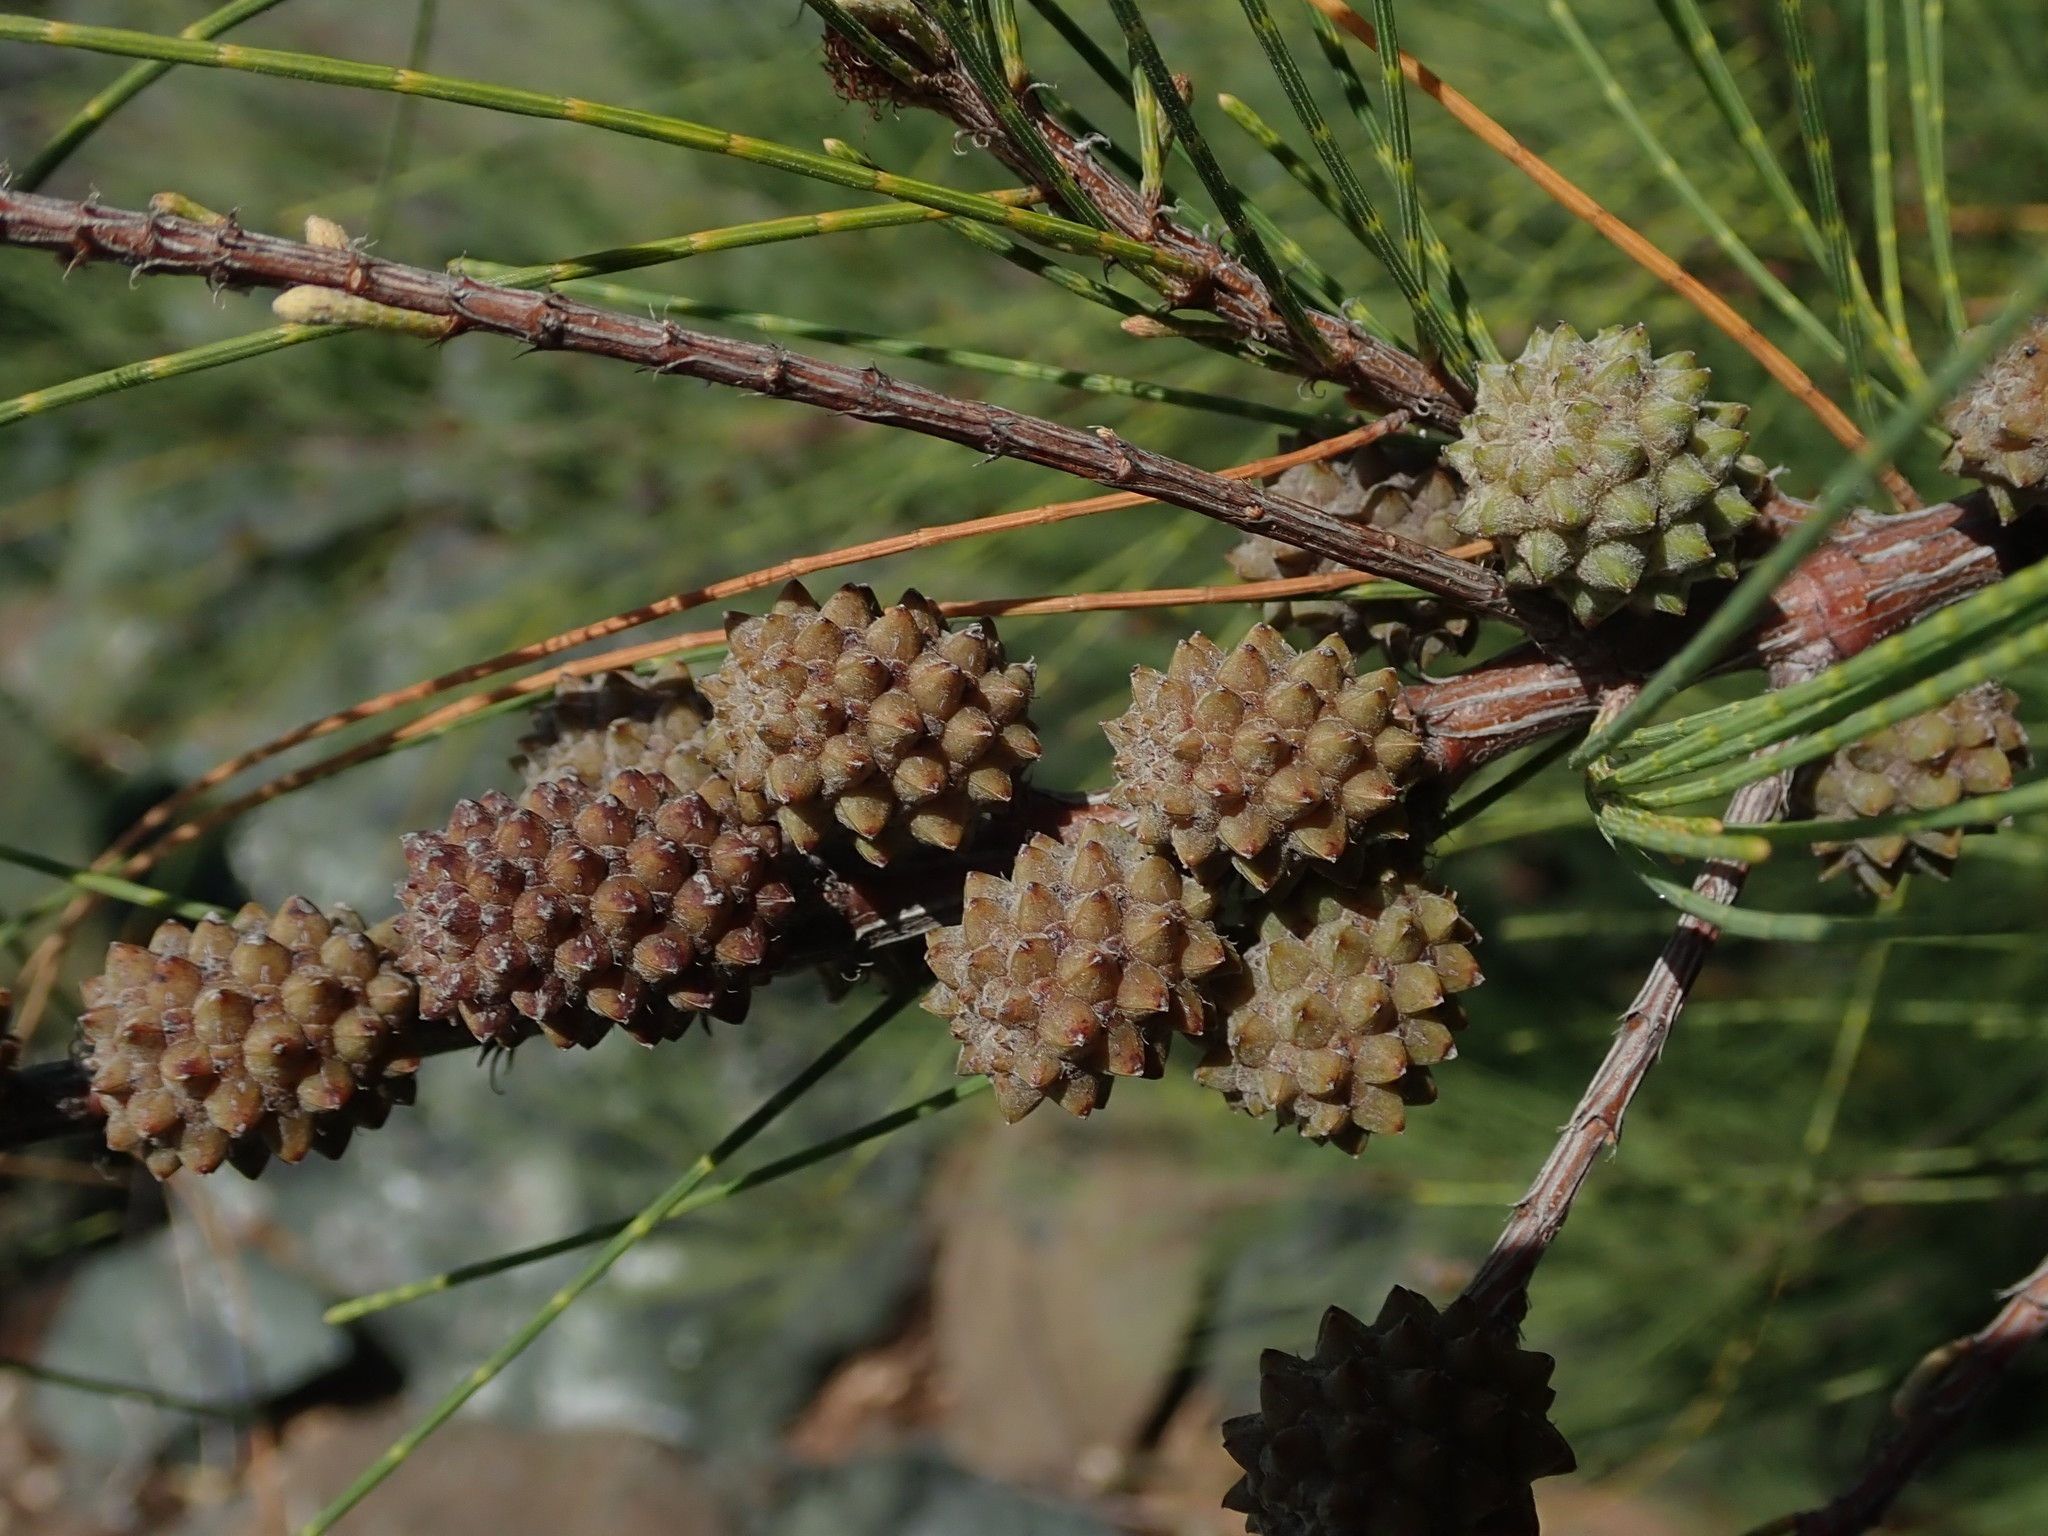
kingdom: Plantae
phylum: Tracheophyta
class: Magnoliopsida
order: Fagales
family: Casuarinaceae
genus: Casuarina
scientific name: Casuarina equisetifolia
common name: Beach sheoak
